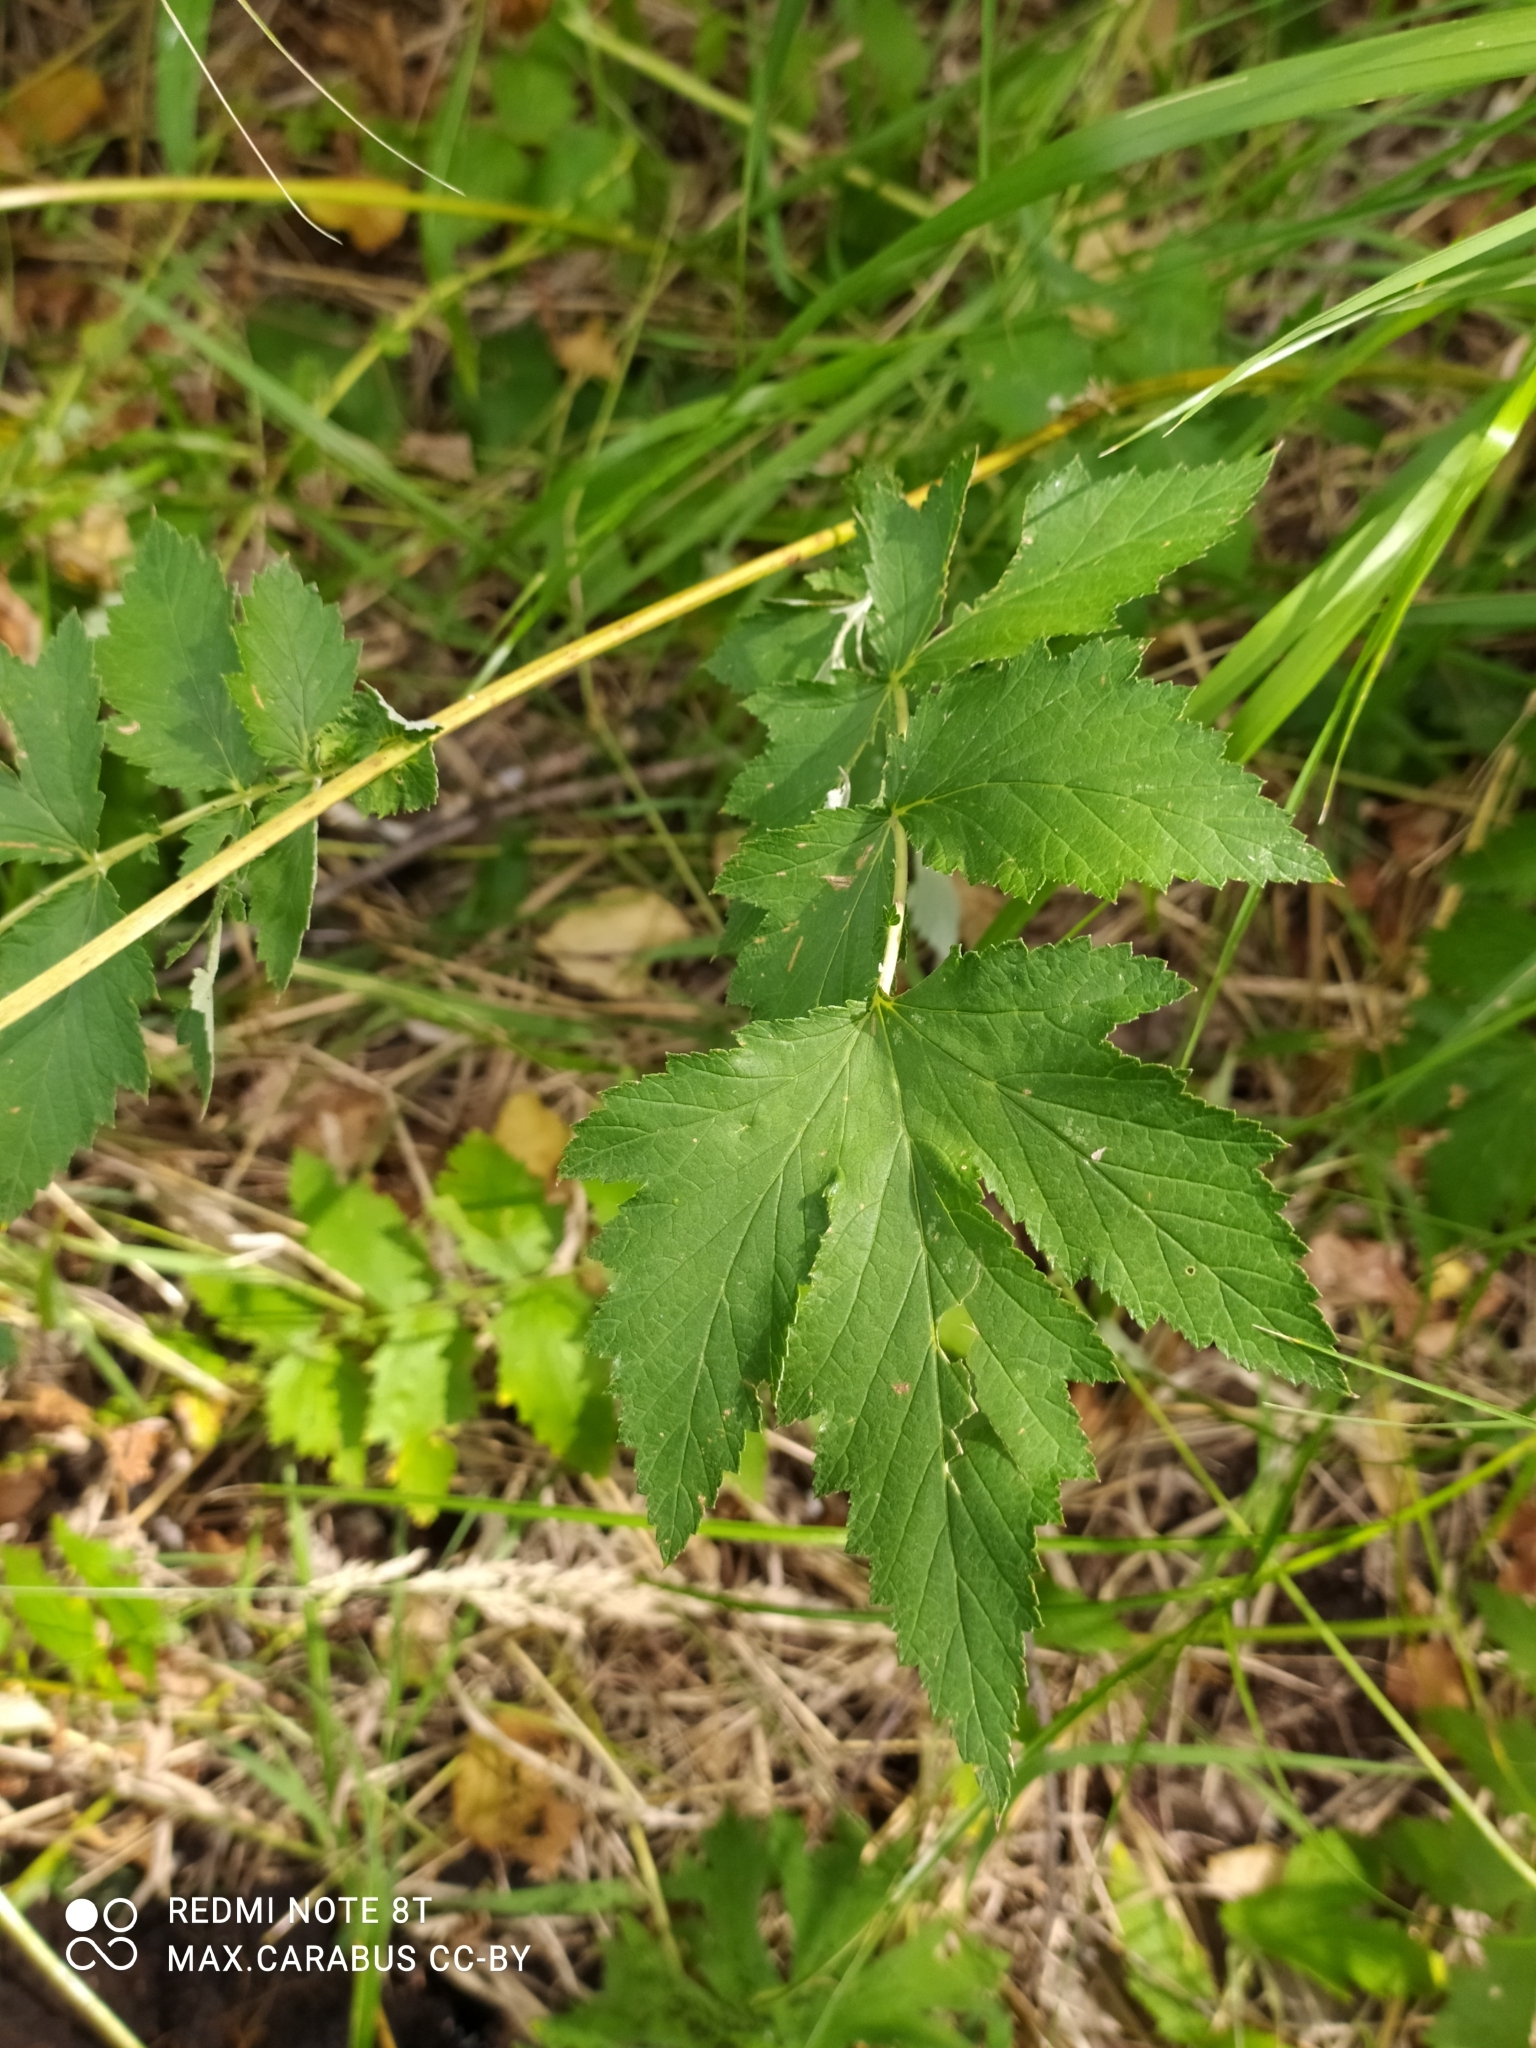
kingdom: Plantae
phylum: Tracheophyta
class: Magnoliopsida
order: Rosales
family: Rosaceae
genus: Filipendula
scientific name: Filipendula ulmaria
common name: Meadowsweet
